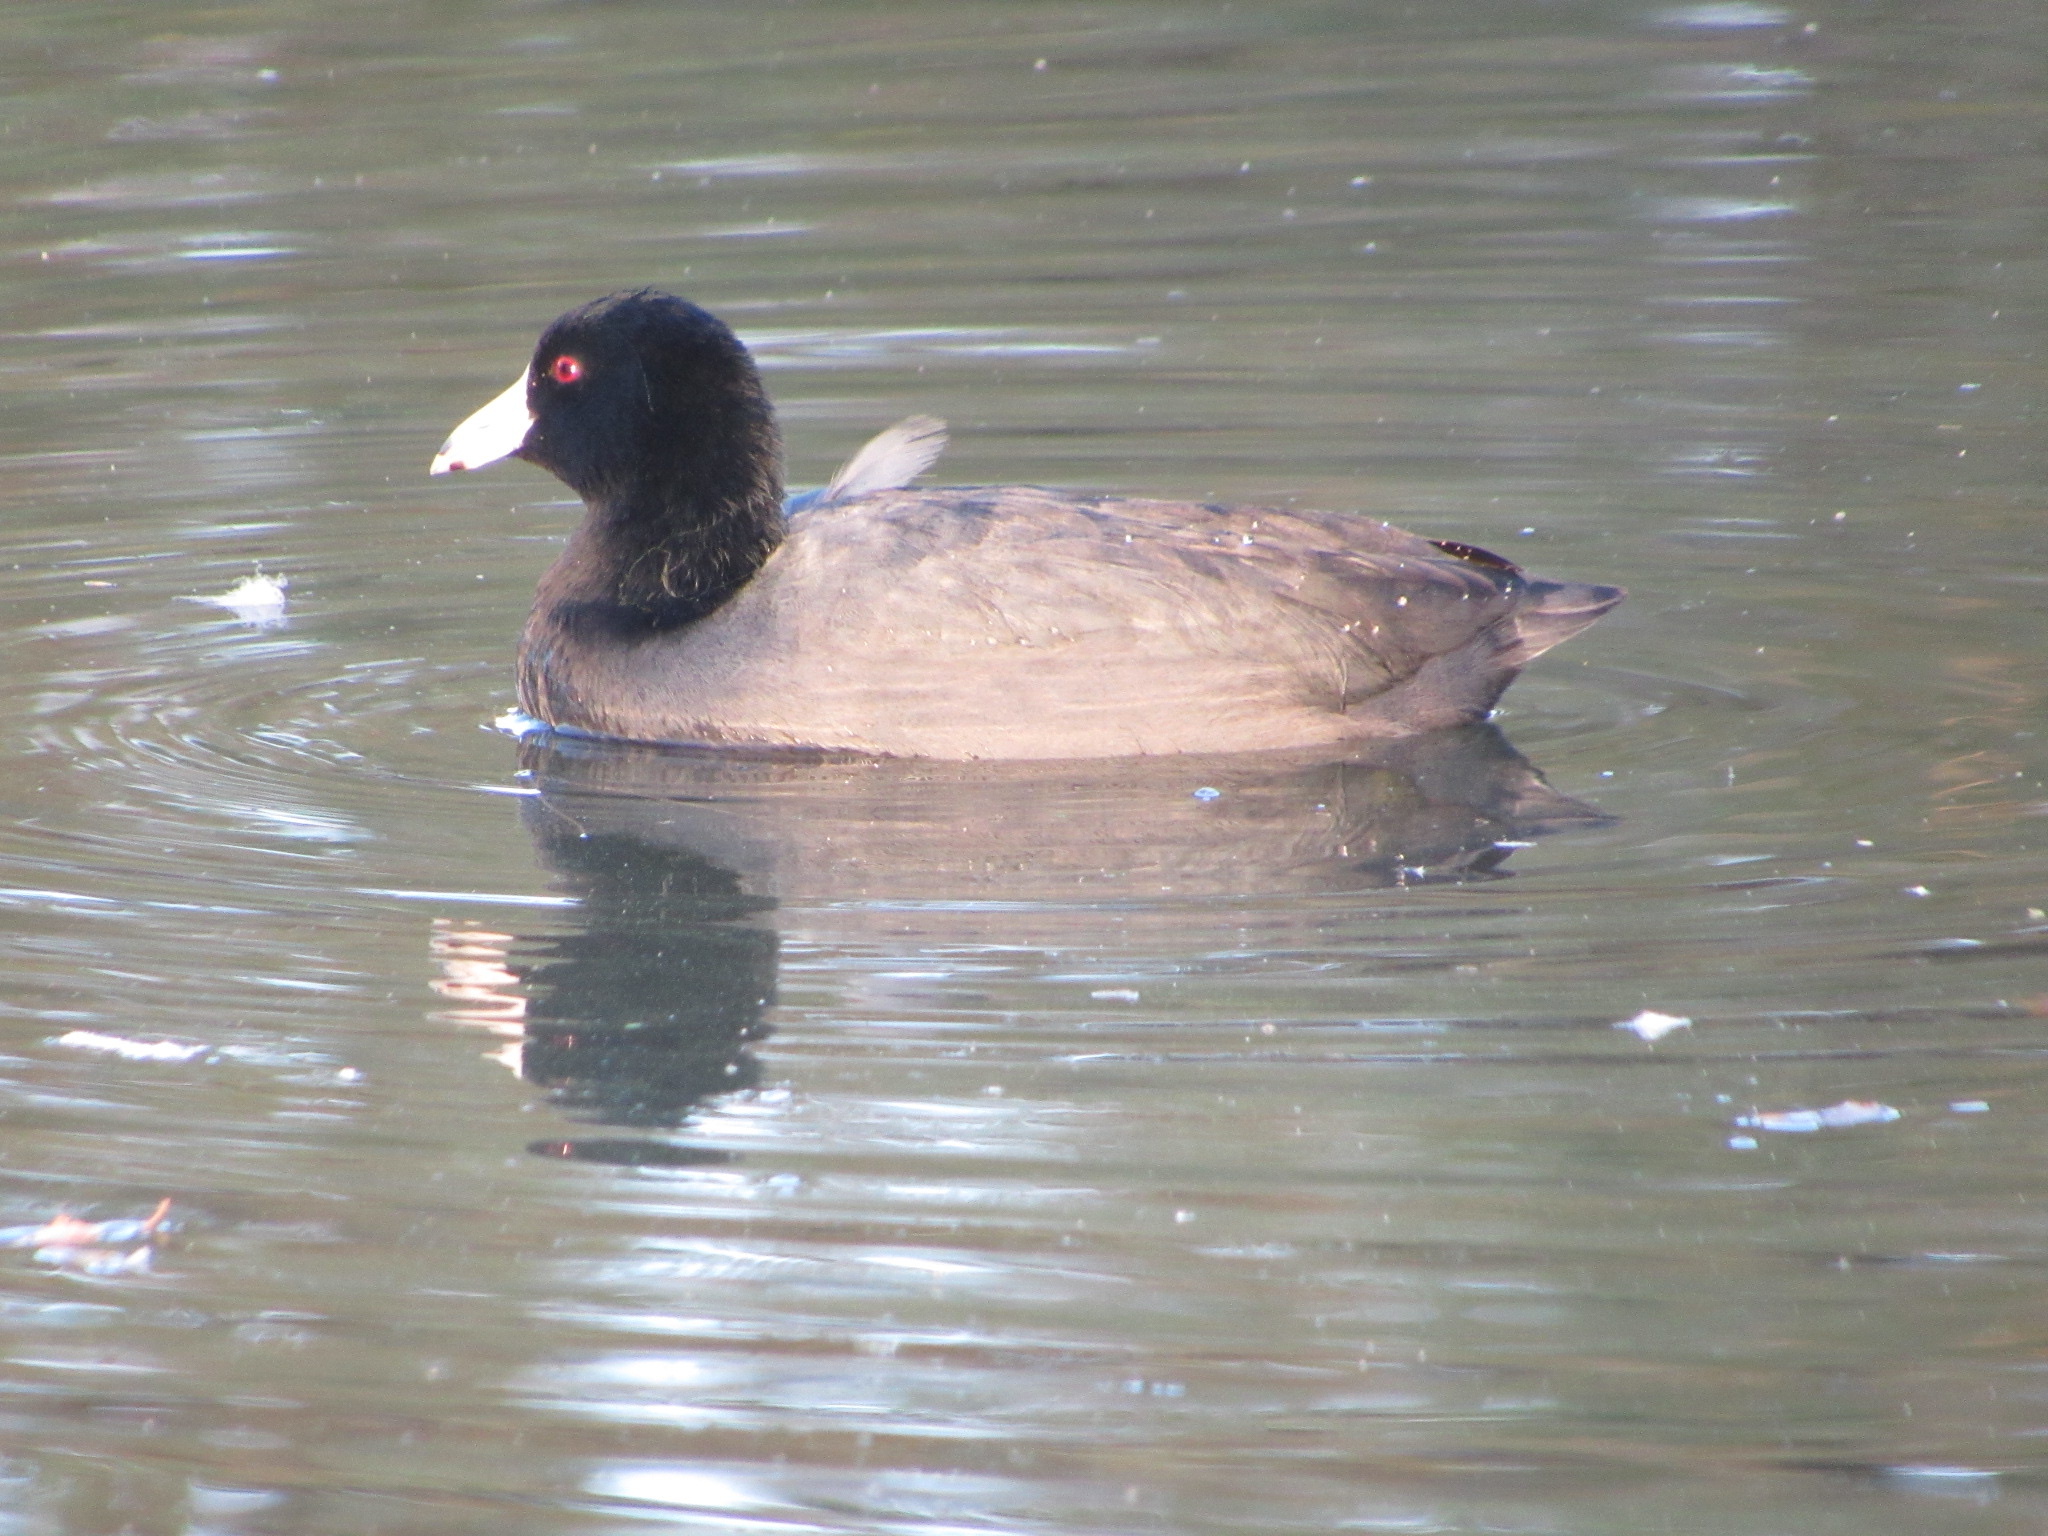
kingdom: Animalia
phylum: Chordata
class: Aves
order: Gruiformes
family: Rallidae
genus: Fulica
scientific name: Fulica americana
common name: American coot
